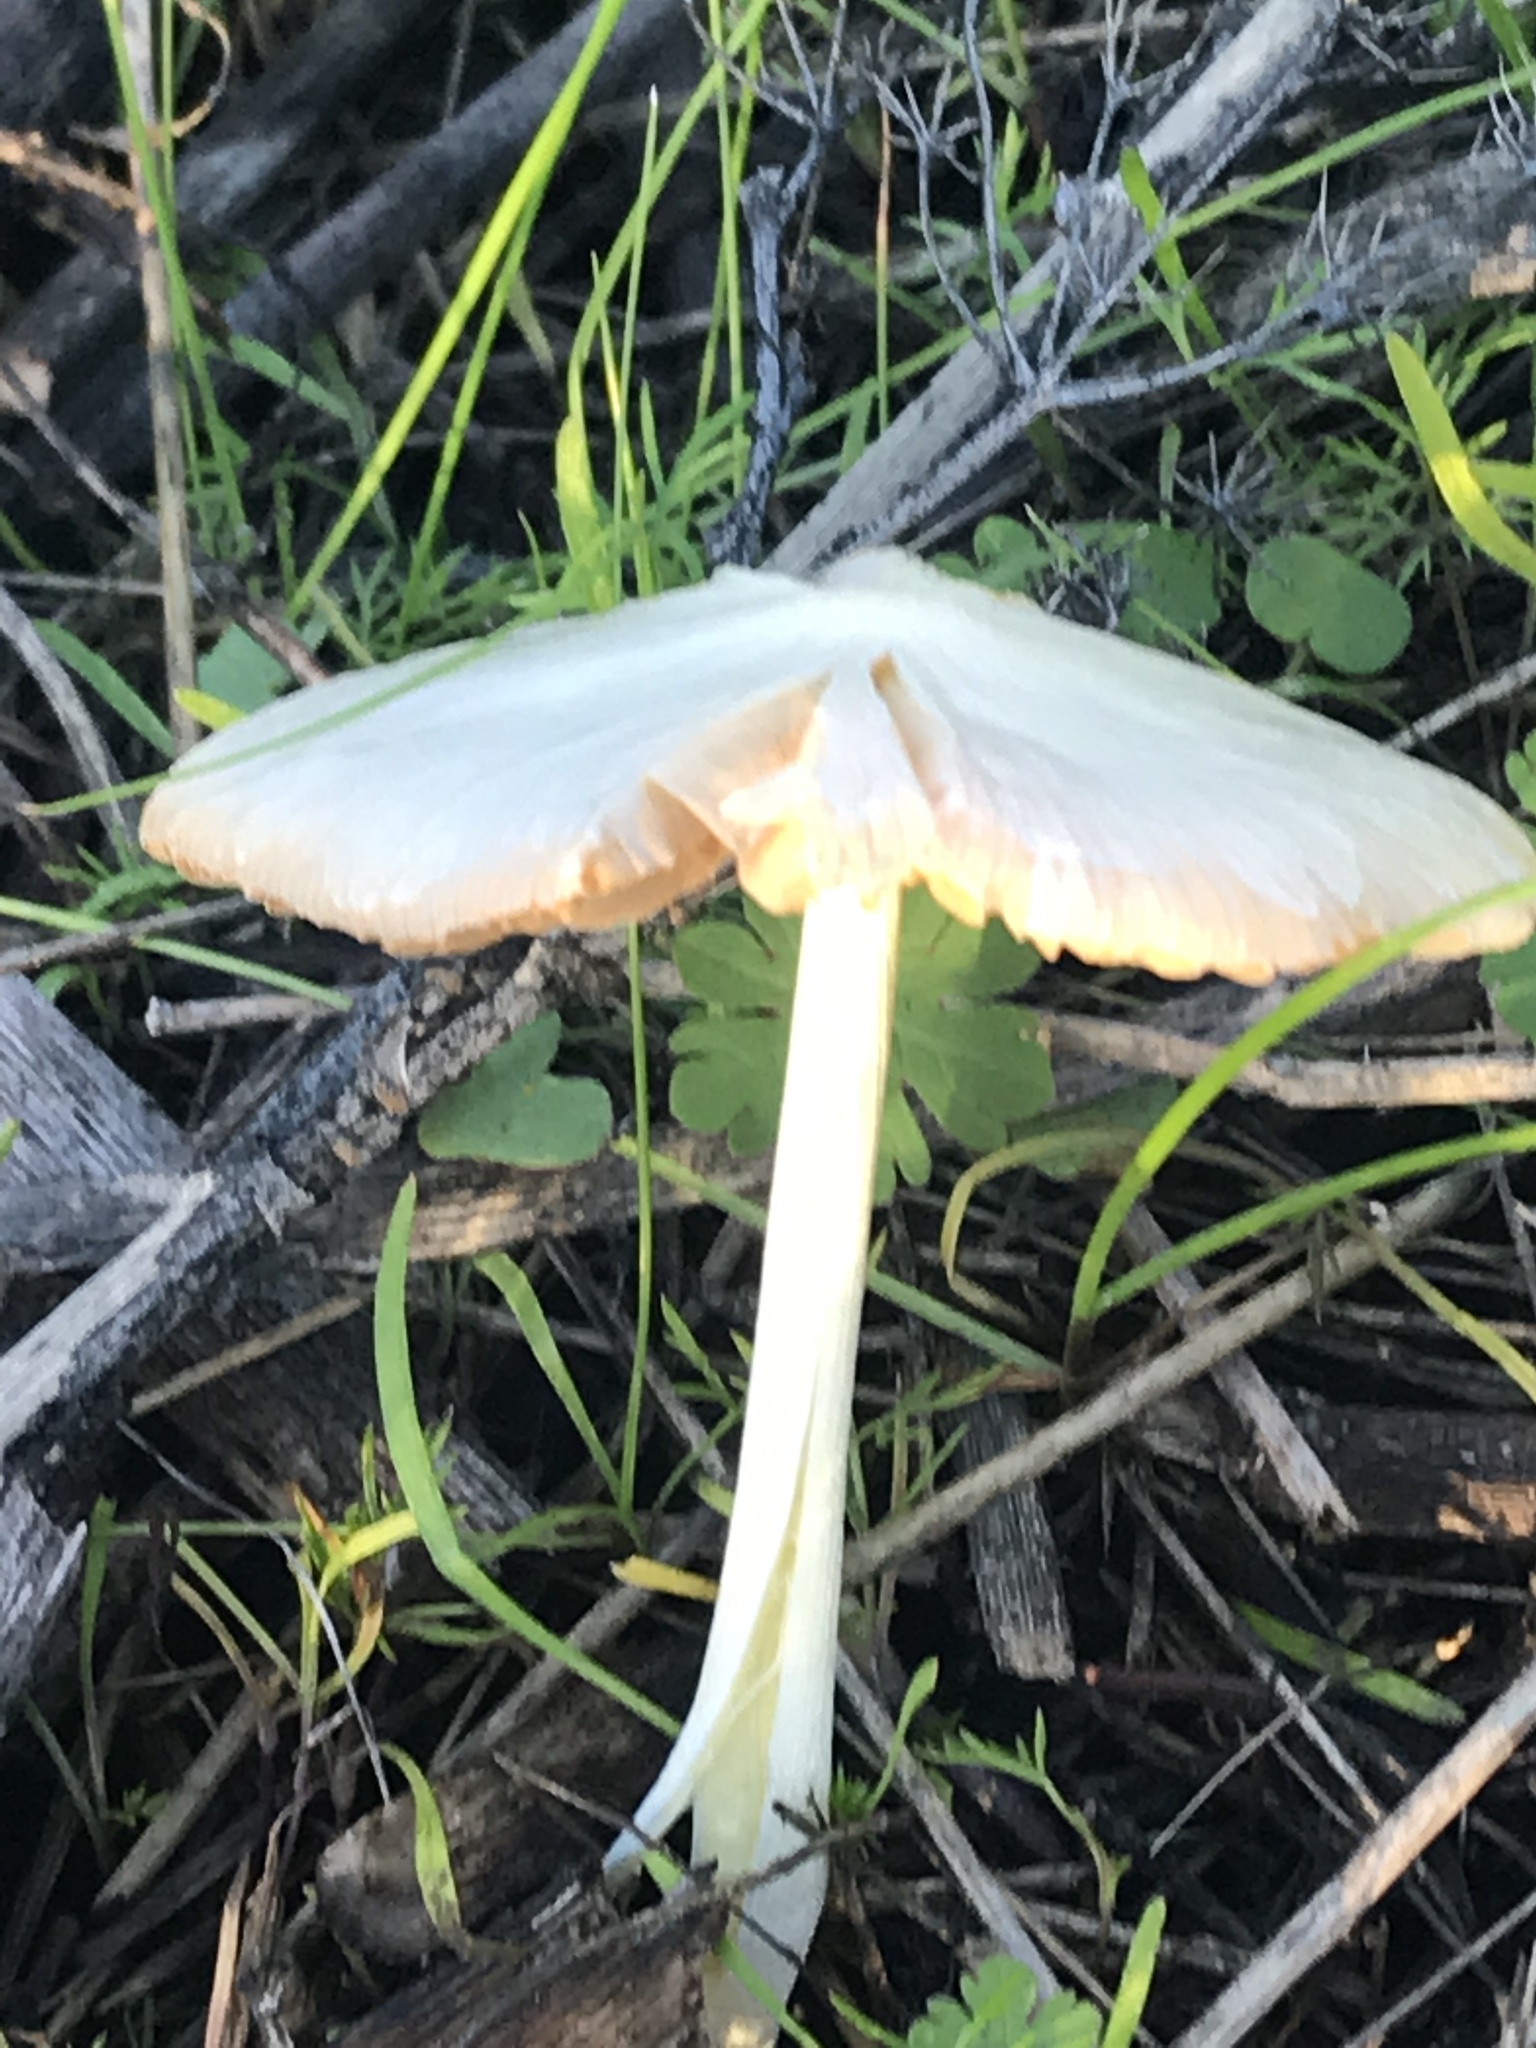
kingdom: Fungi
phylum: Basidiomycota
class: Agaricomycetes
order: Agaricales
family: Pluteaceae
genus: Volvopluteus
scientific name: Volvopluteus gloiocephalus
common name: Stubble rosegill
